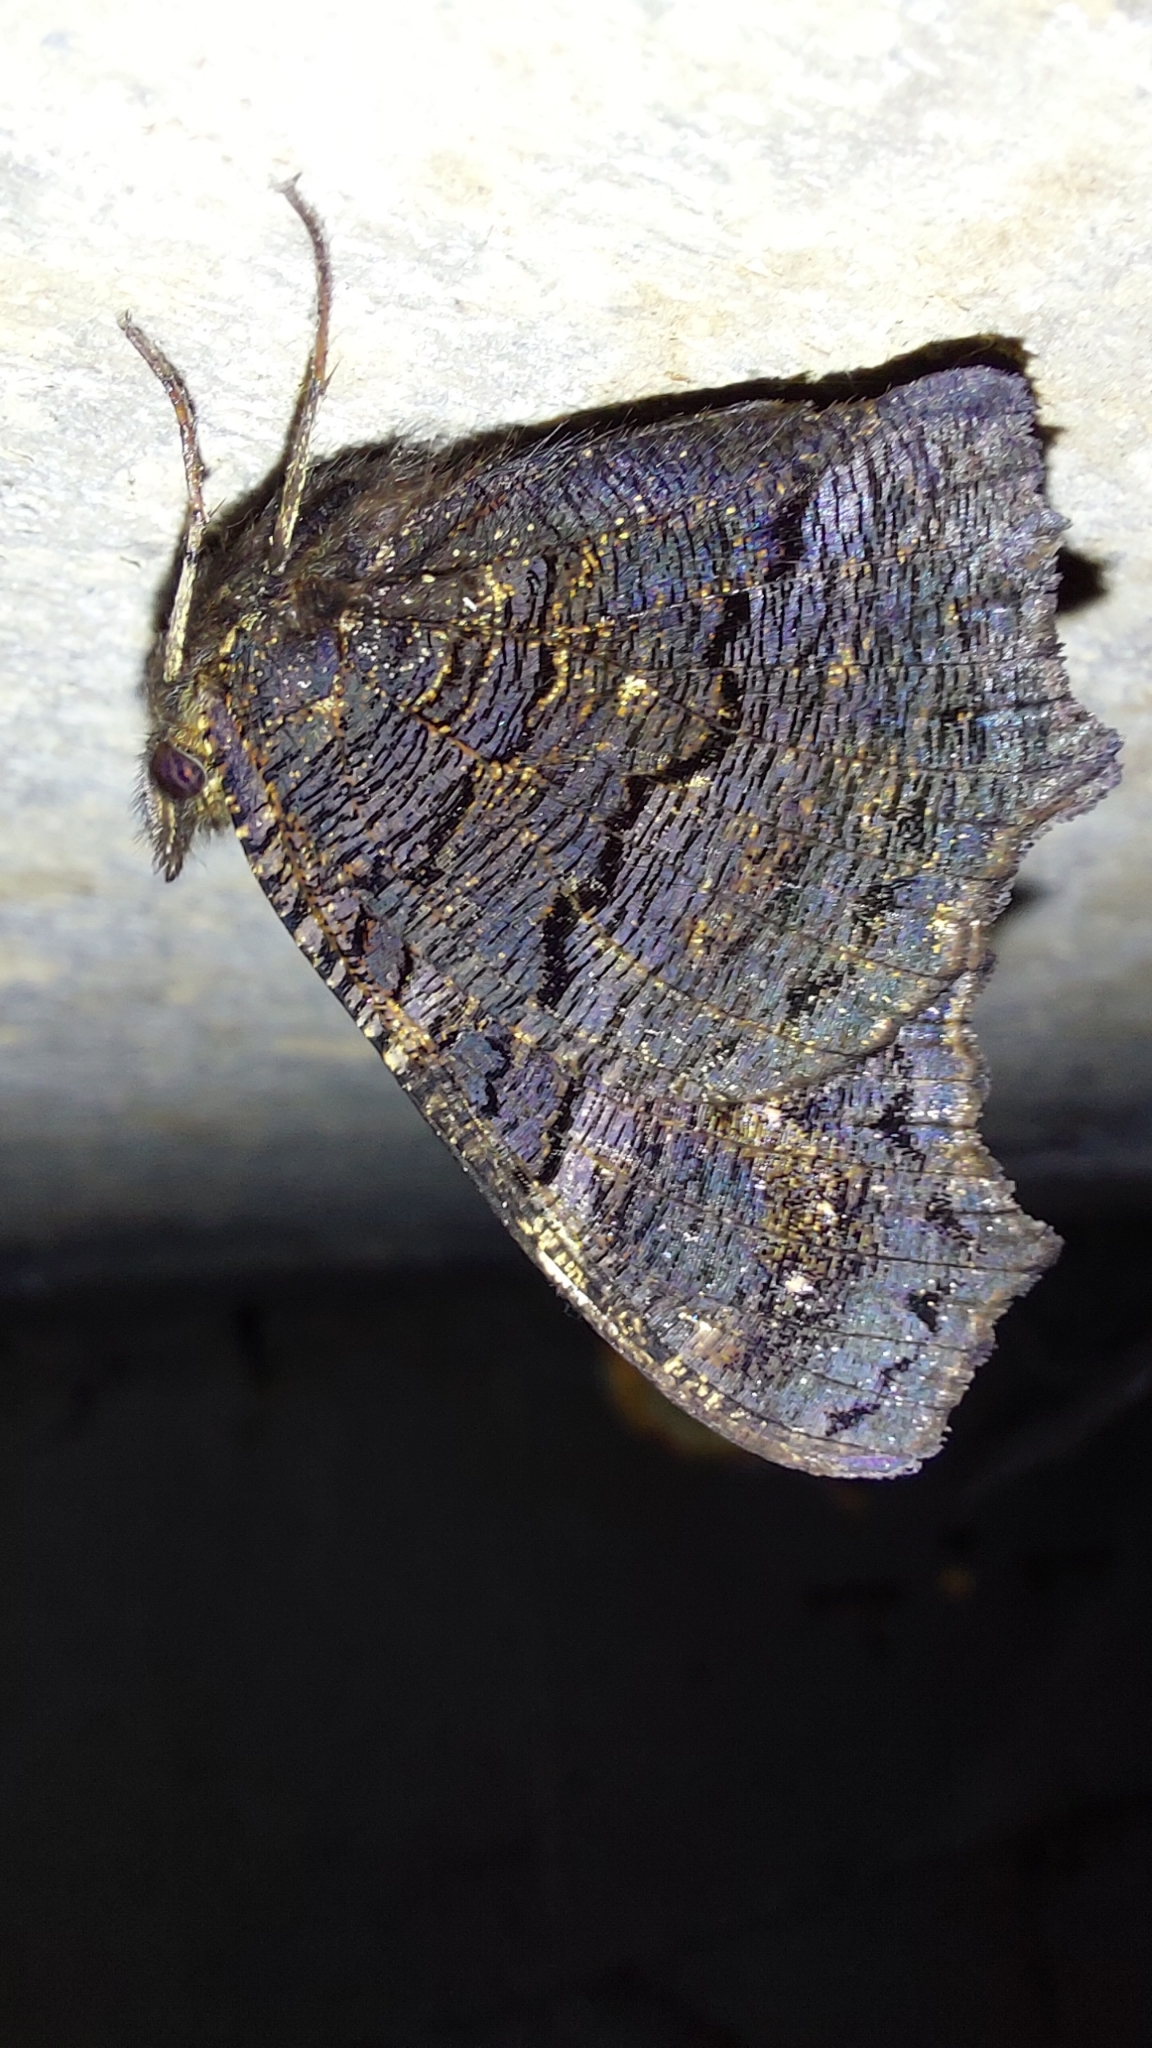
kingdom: Animalia
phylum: Arthropoda
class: Insecta
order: Lepidoptera
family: Nymphalidae
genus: Aglais
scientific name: Aglais io
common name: Peacock
